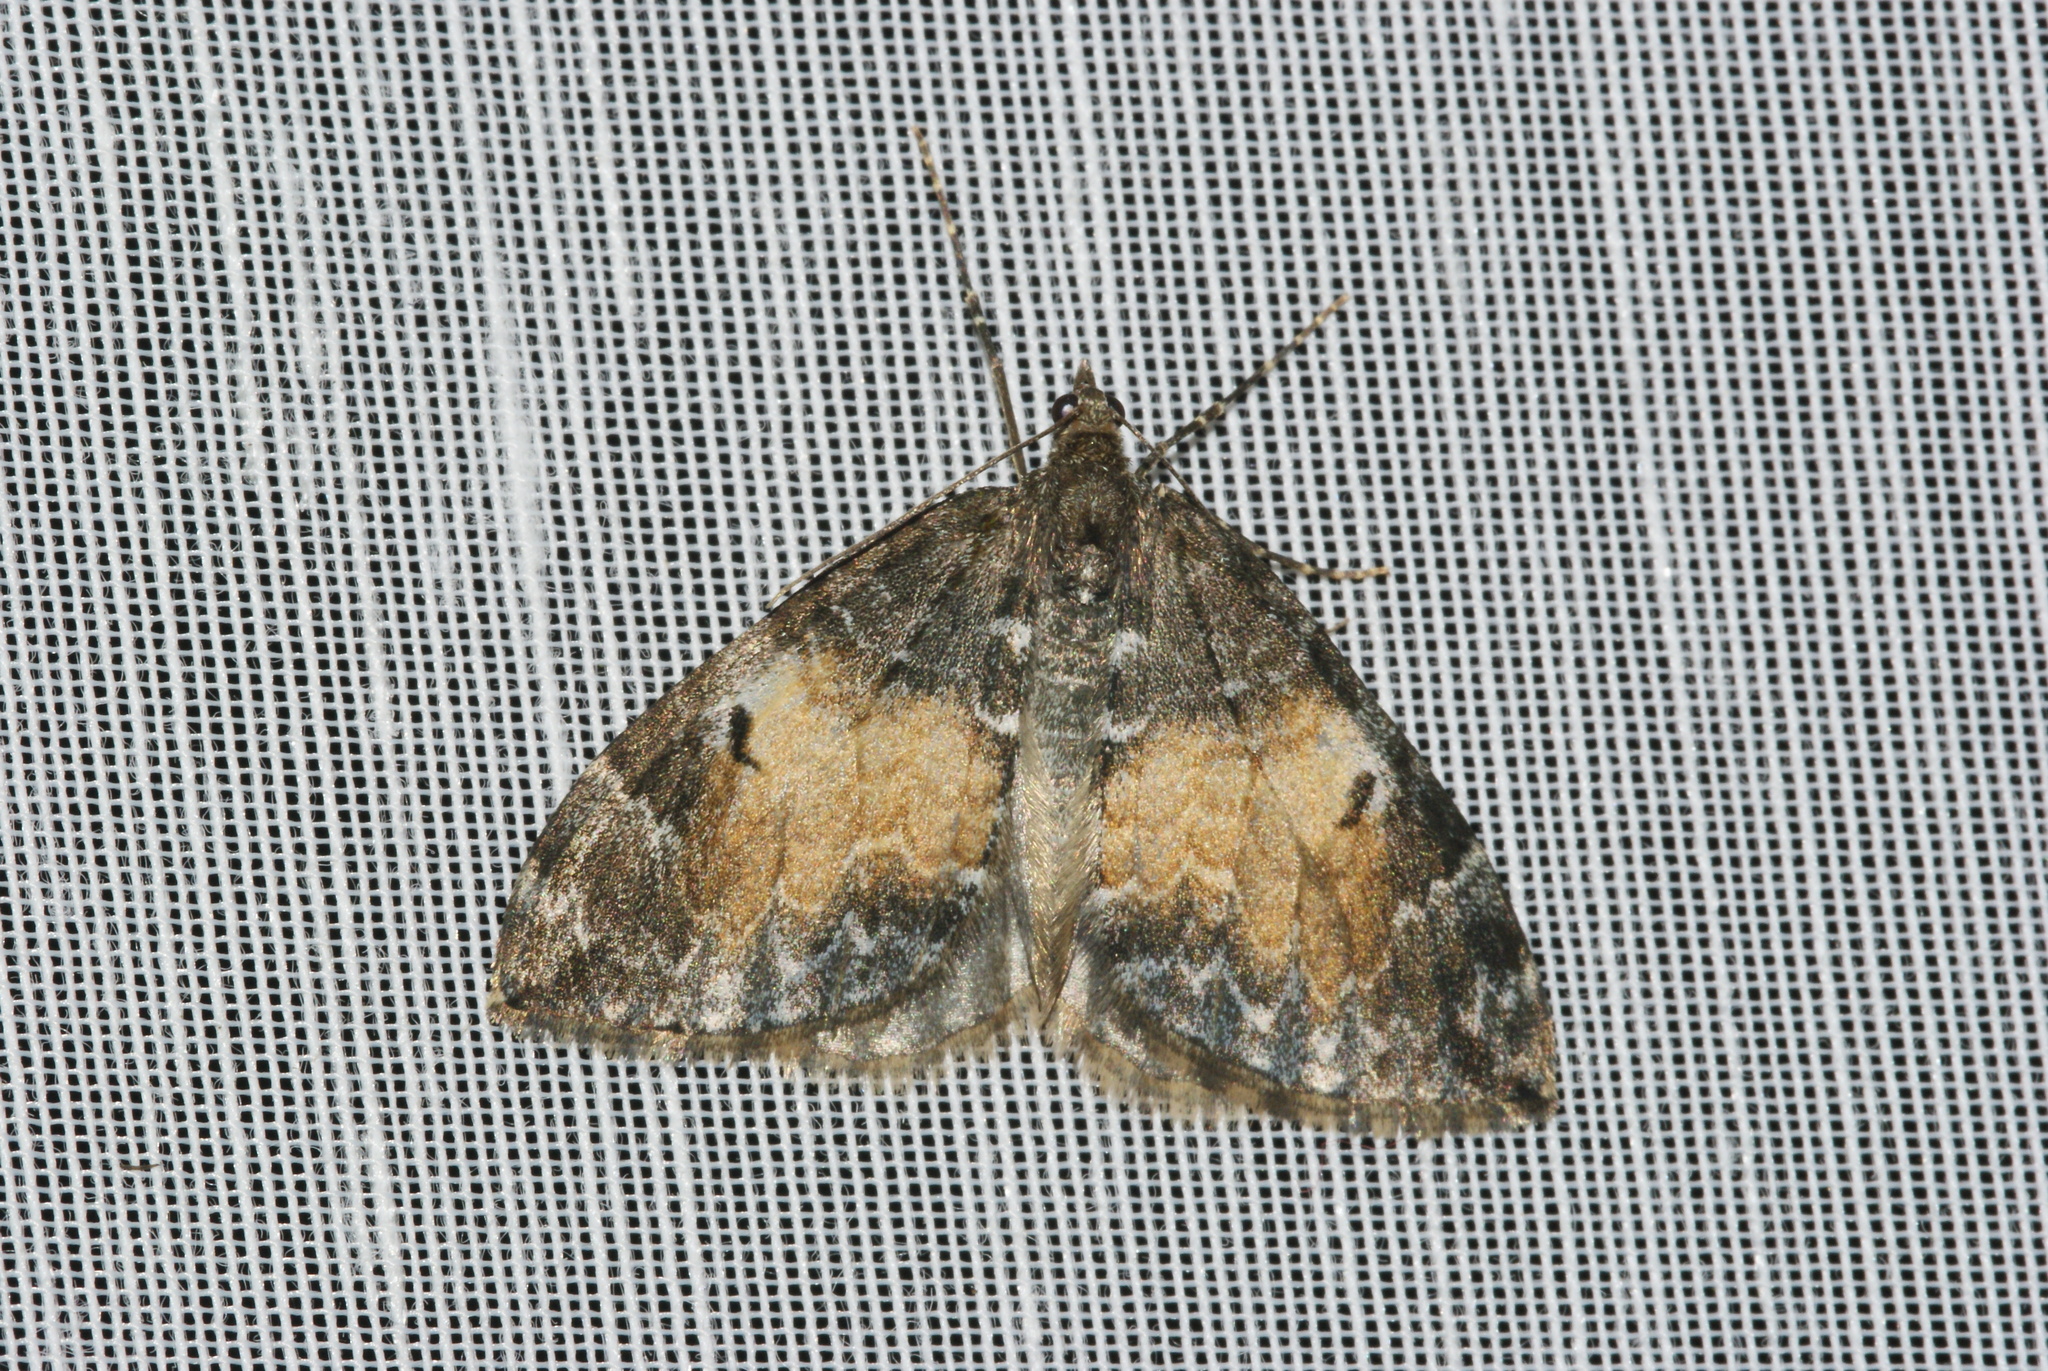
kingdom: Animalia
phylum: Arthropoda
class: Insecta
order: Lepidoptera
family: Geometridae
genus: Dysstroma
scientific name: Dysstroma truncata
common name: Common marbled carpet
